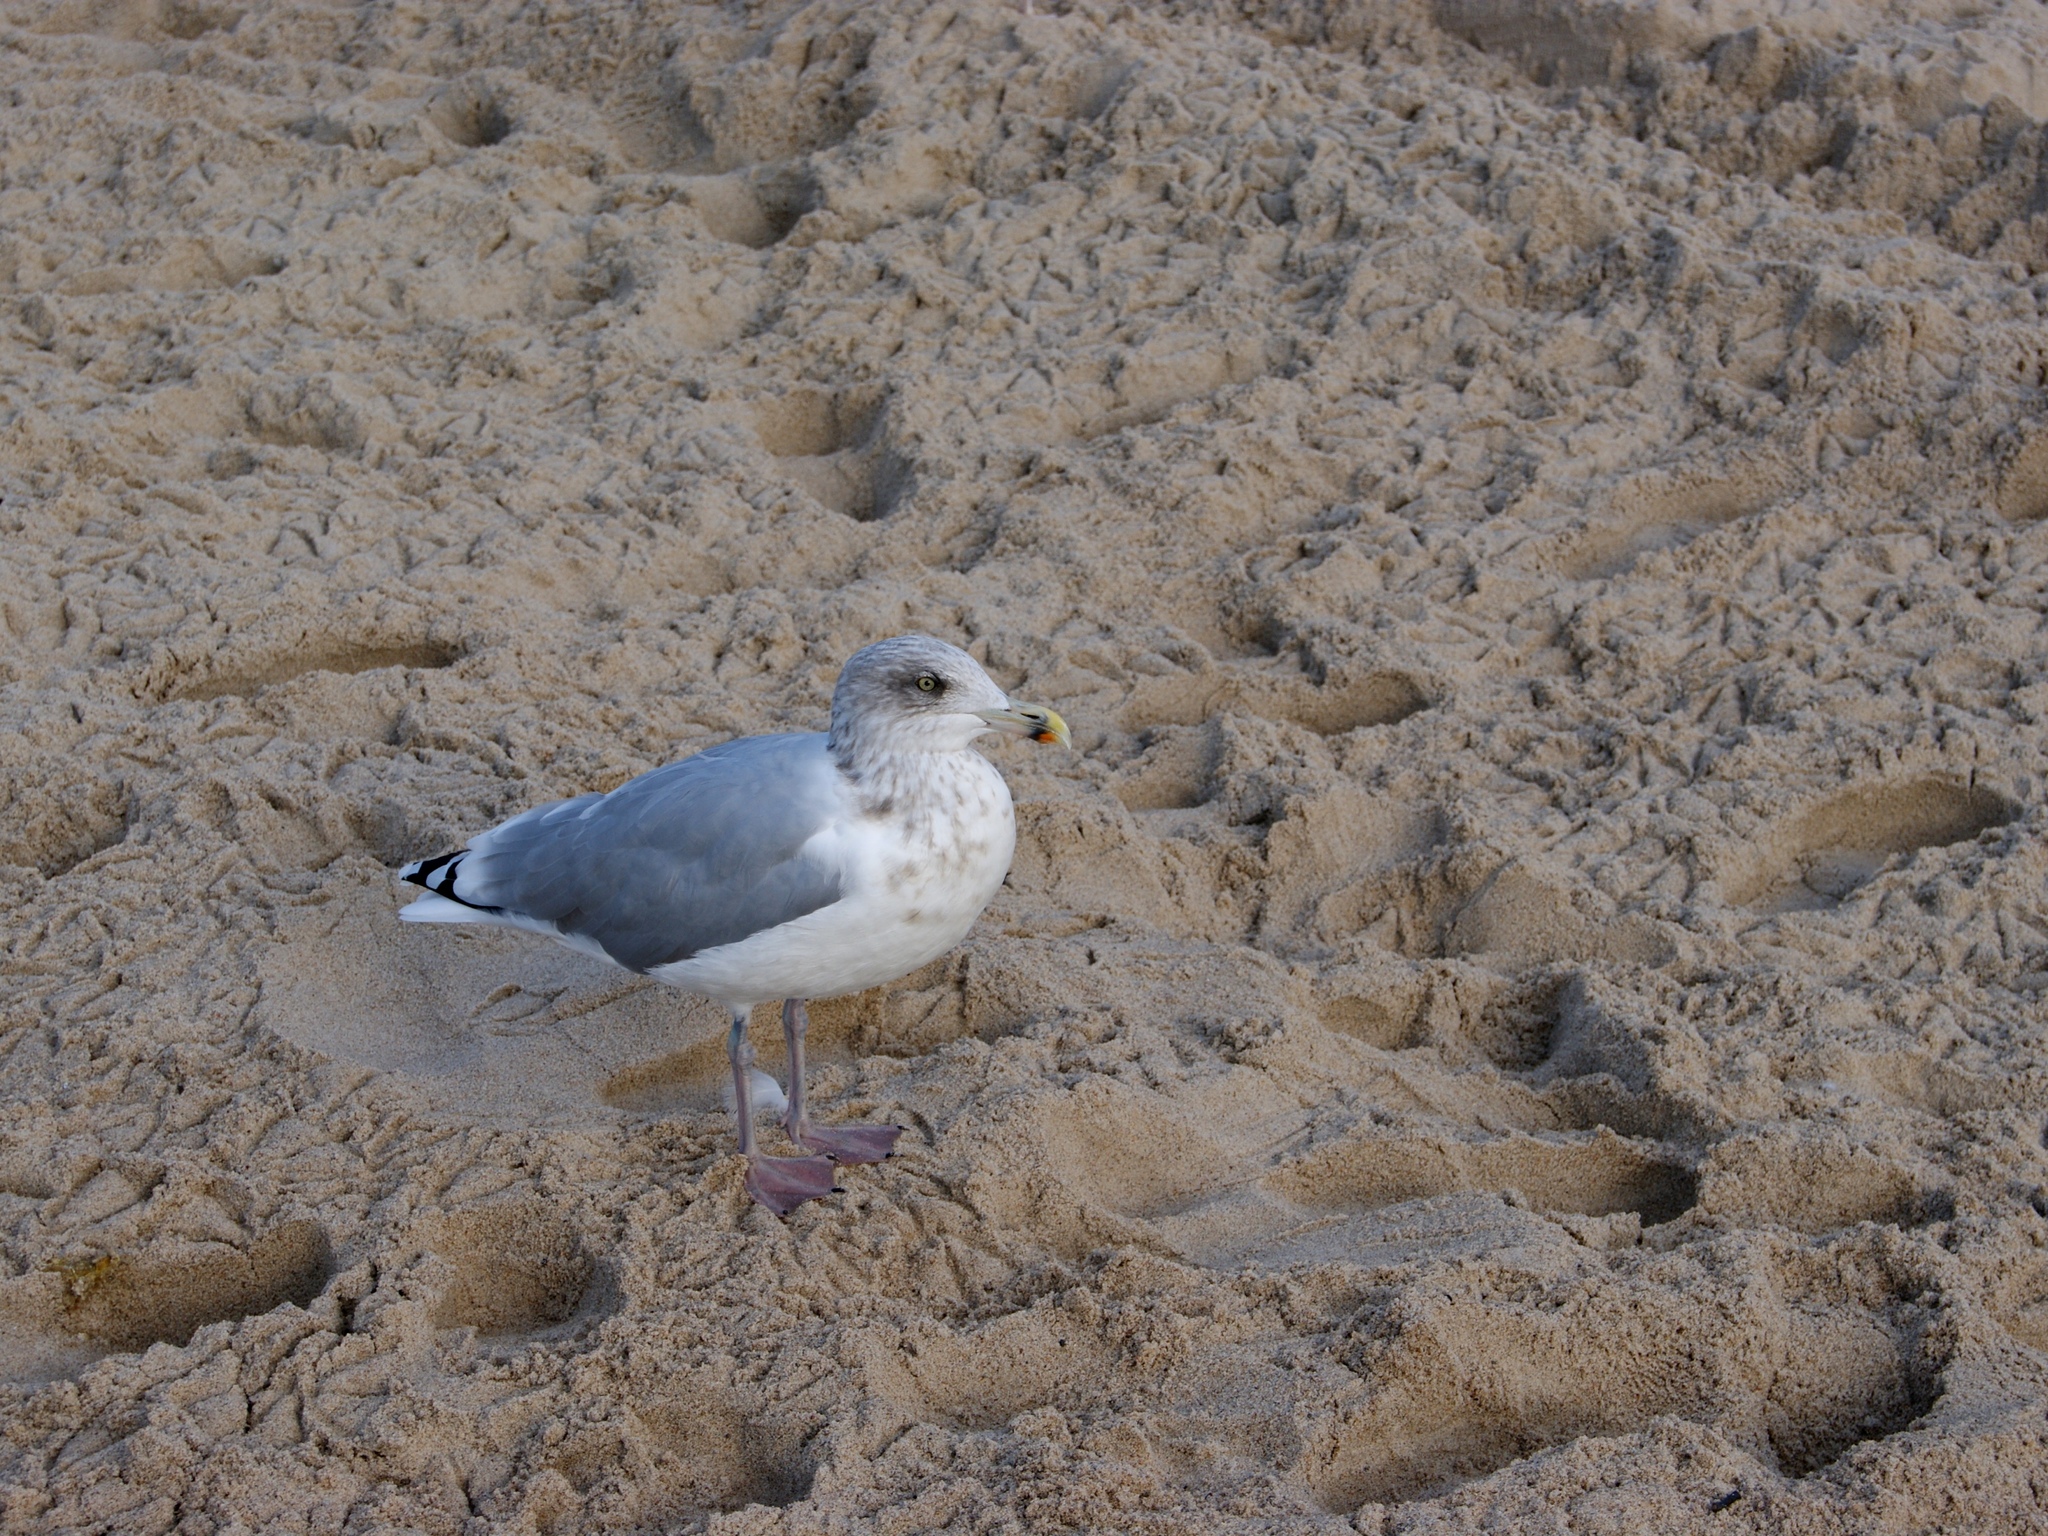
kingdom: Animalia
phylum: Chordata
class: Aves
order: Charadriiformes
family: Laridae
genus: Larus
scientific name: Larus argentatus
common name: Herring gull
